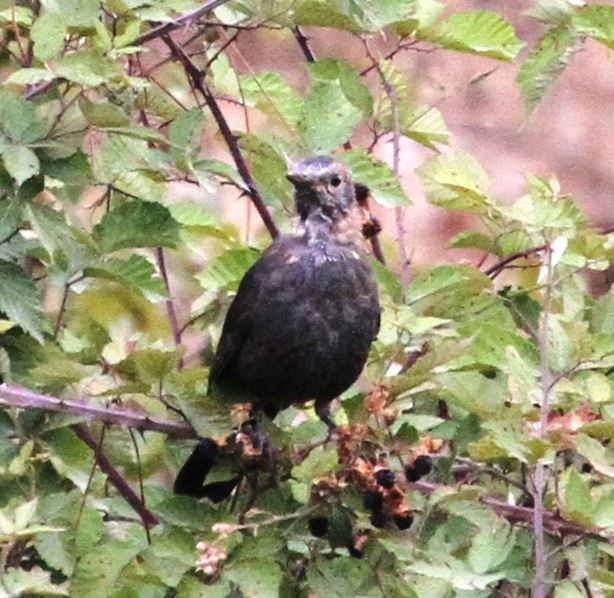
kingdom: Animalia
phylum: Chordata
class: Aves
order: Passeriformes
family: Turdidae
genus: Turdus
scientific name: Turdus merula
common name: Common blackbird
